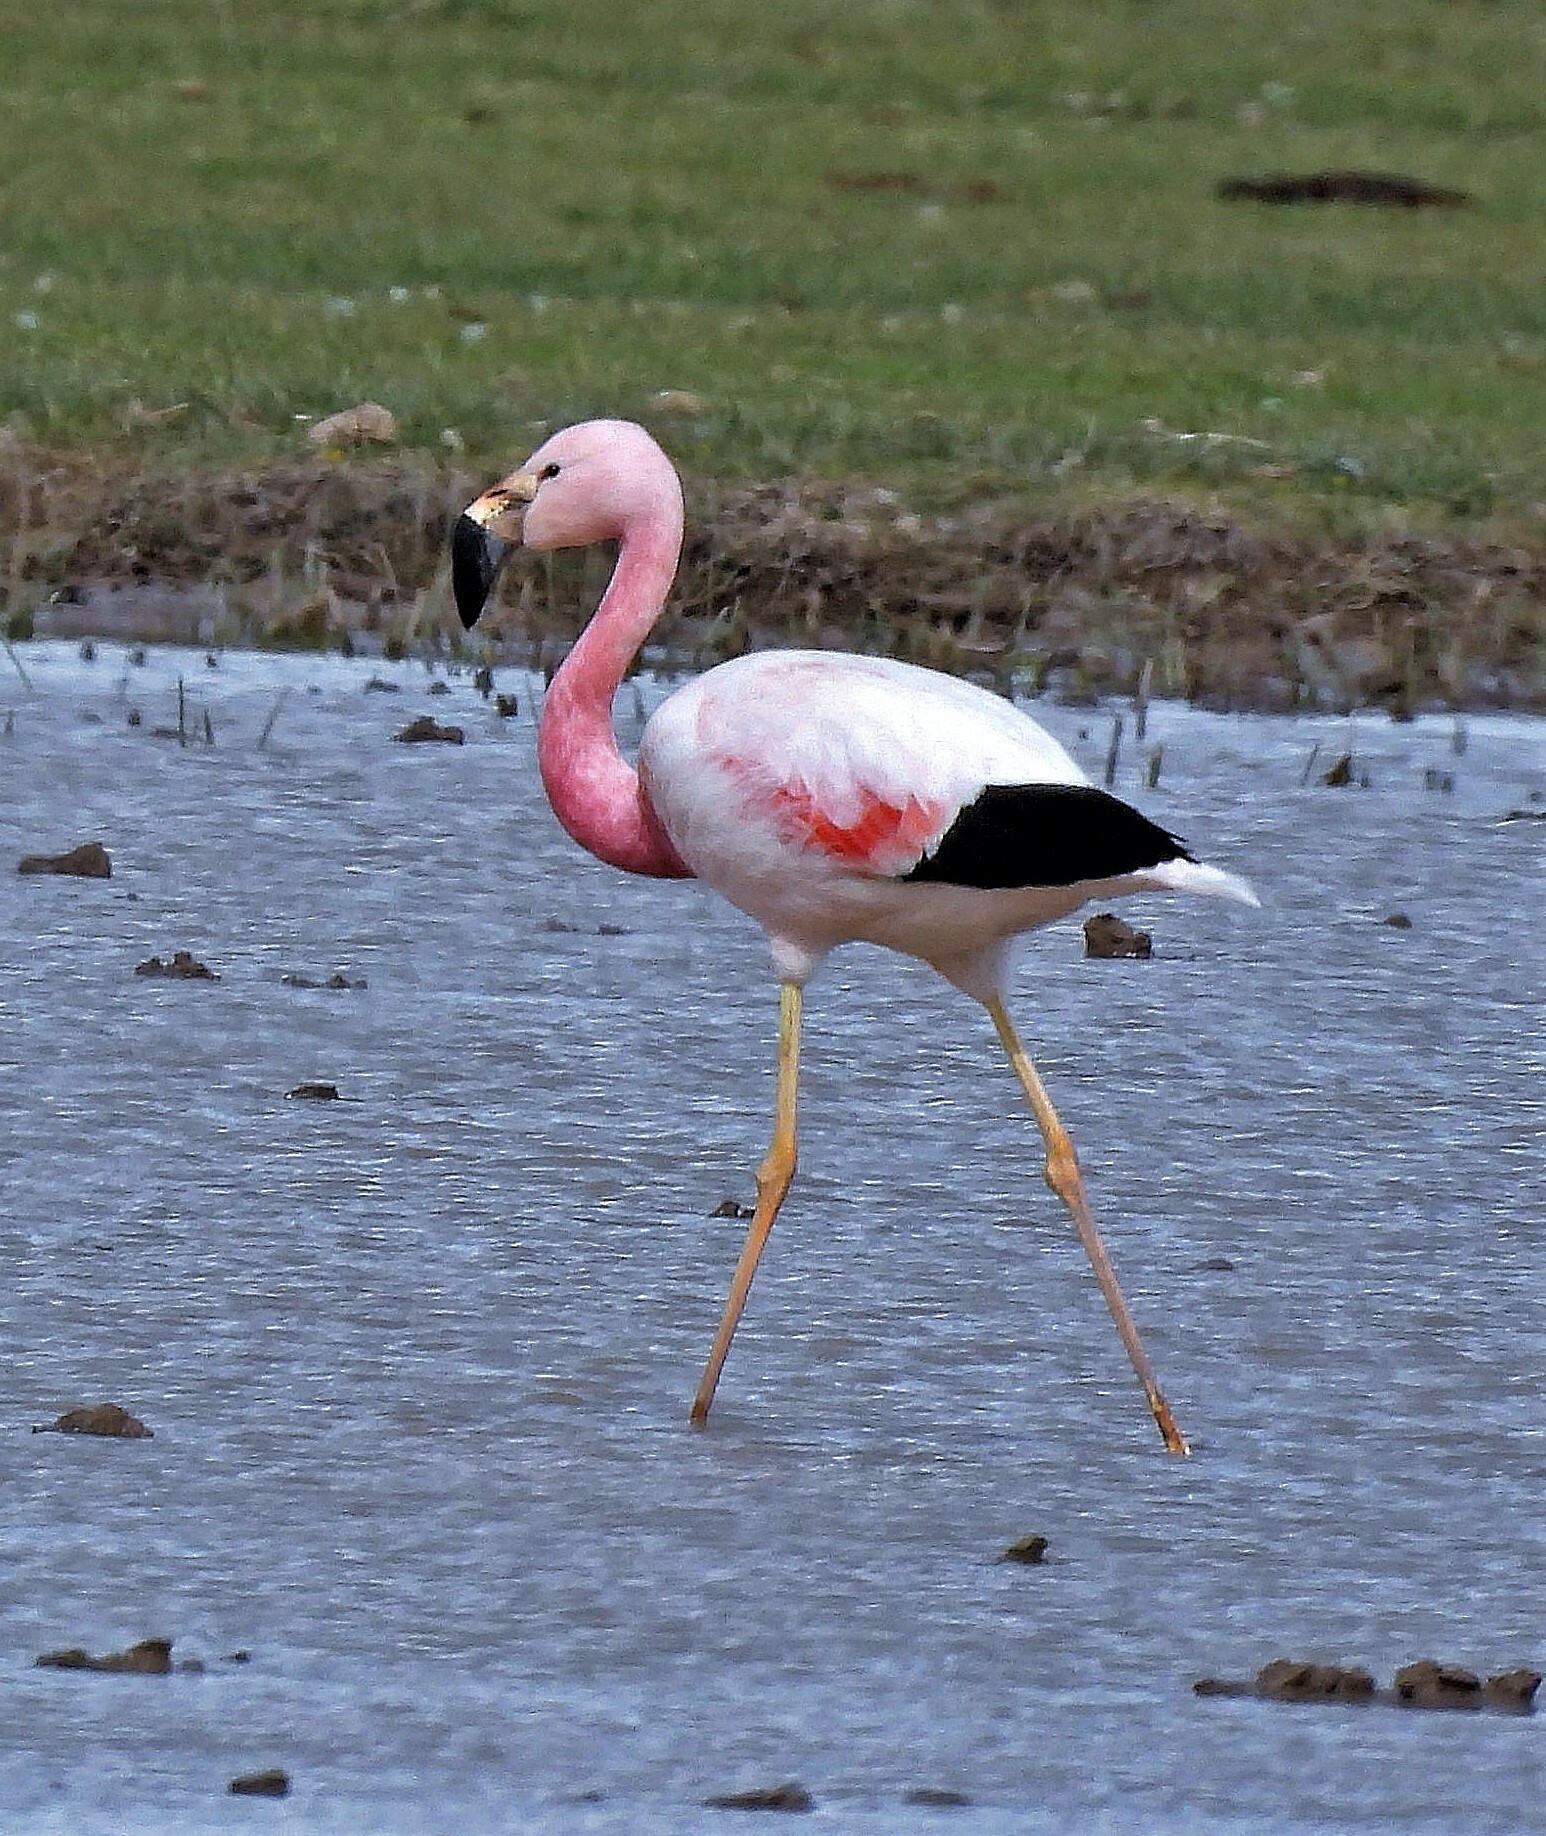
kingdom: Animalia
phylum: Chordata
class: Aves
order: Phoenicopteriformes
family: Phoenicopteridae
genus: Phoenicoparrus
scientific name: Phoenicoparrus andinus
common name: Andean flamingo
